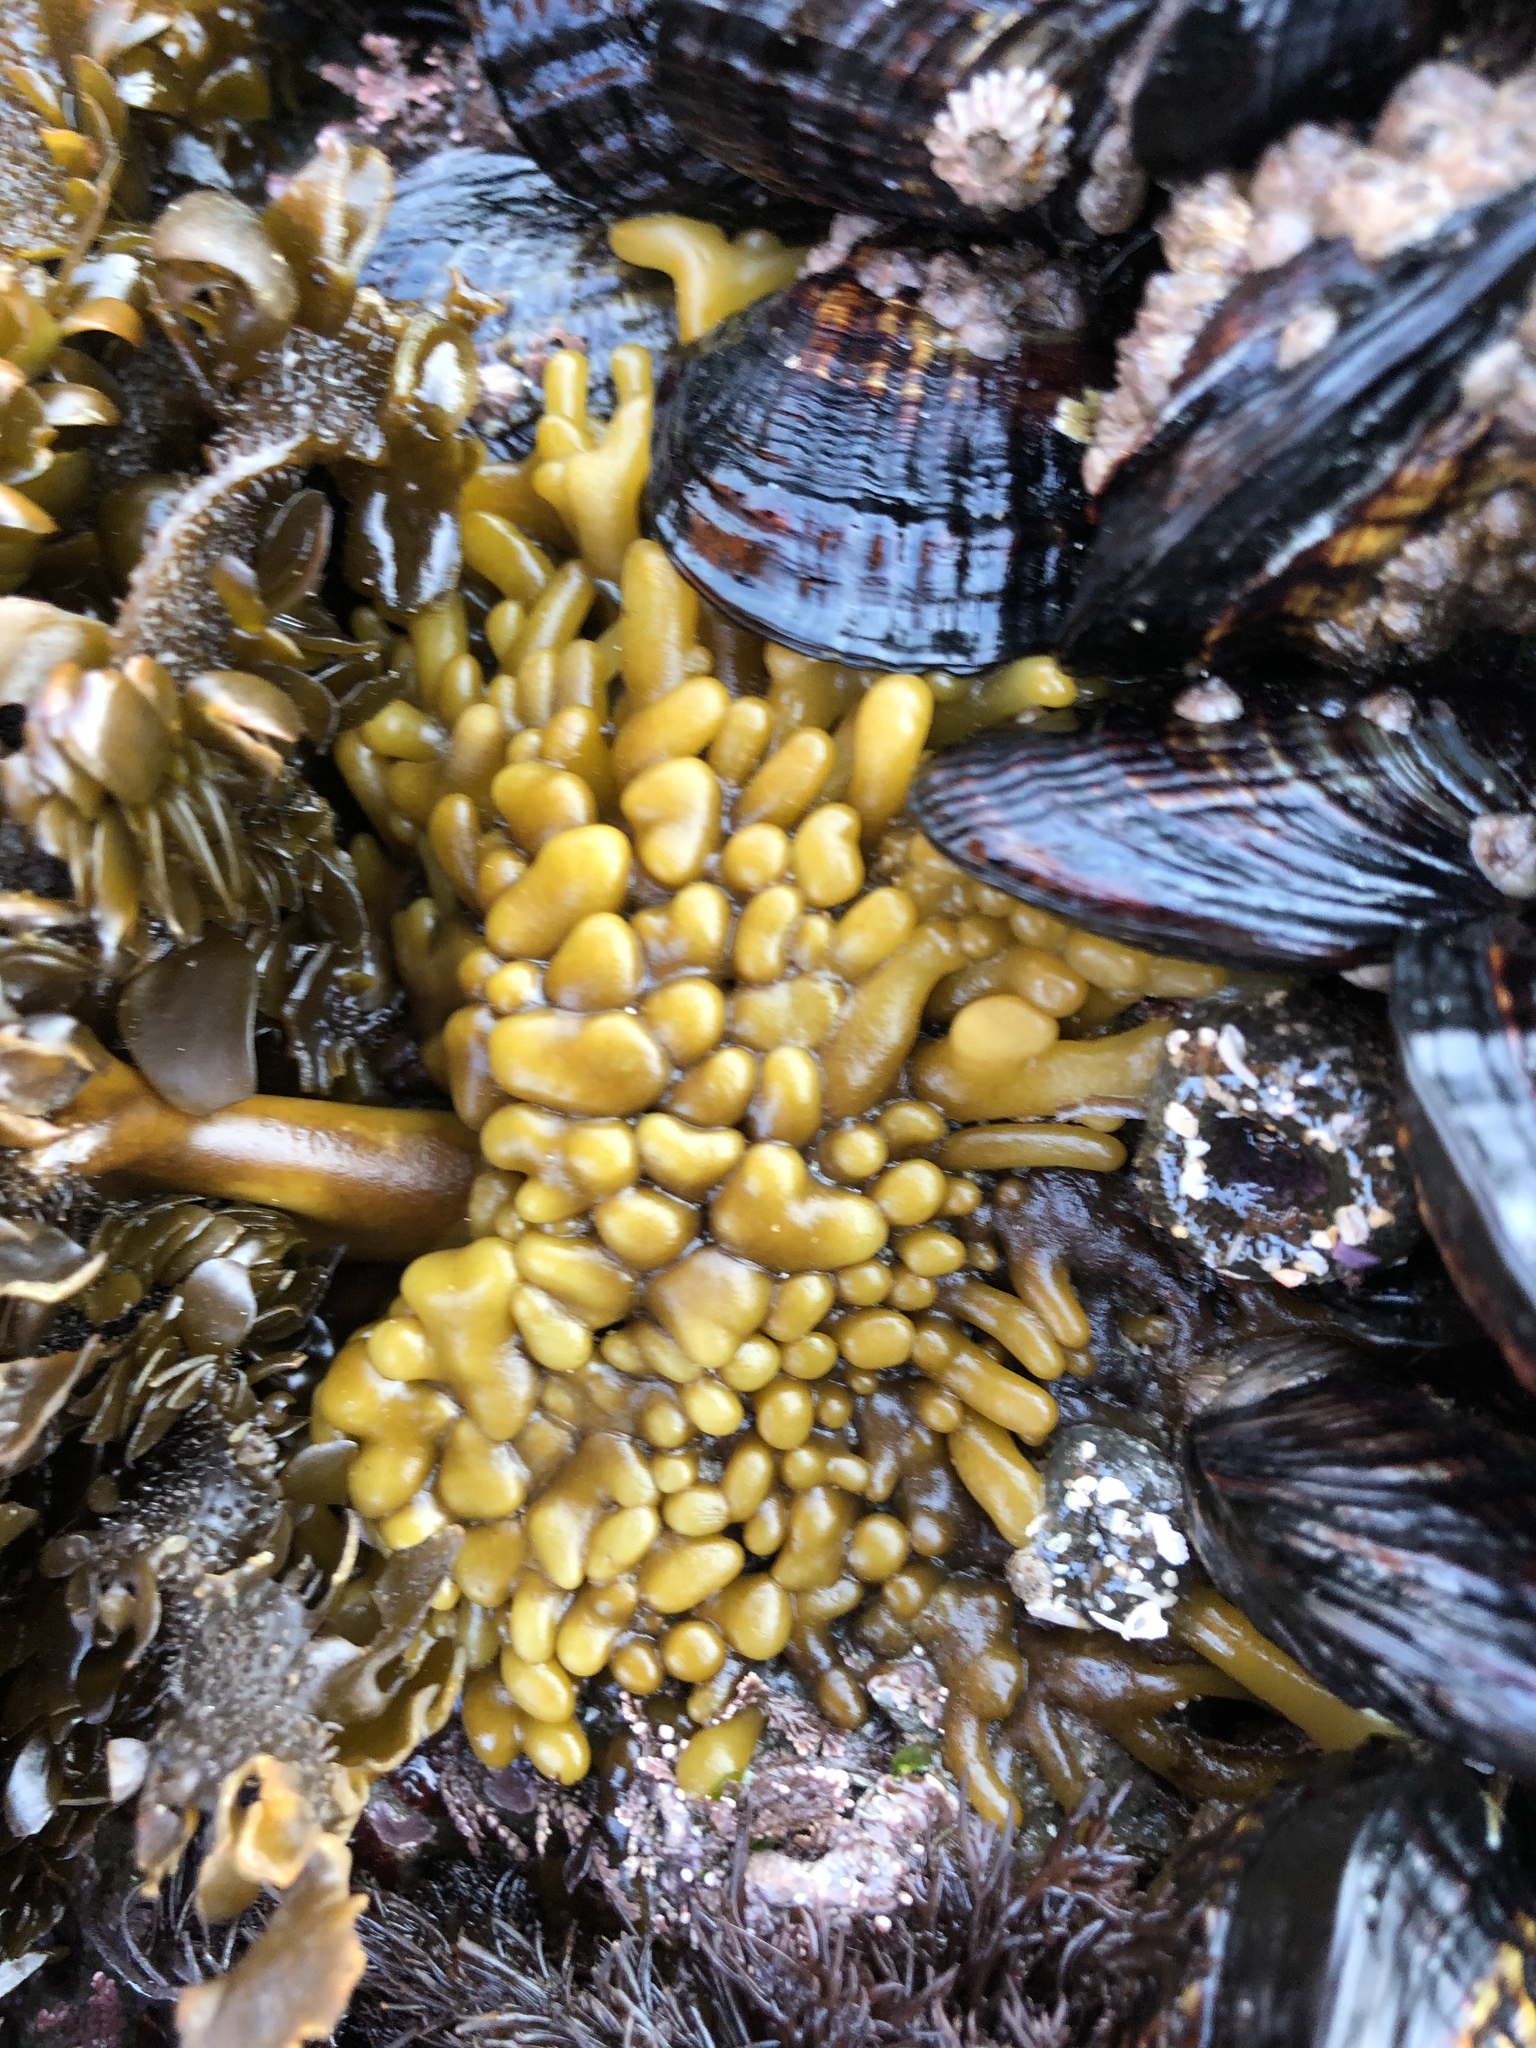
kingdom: Plantae
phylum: Rhodophyta
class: Florideophyceae
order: Palmariales
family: Palmariaceae
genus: Halosaccion
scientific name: Halosaccion glandiforme
